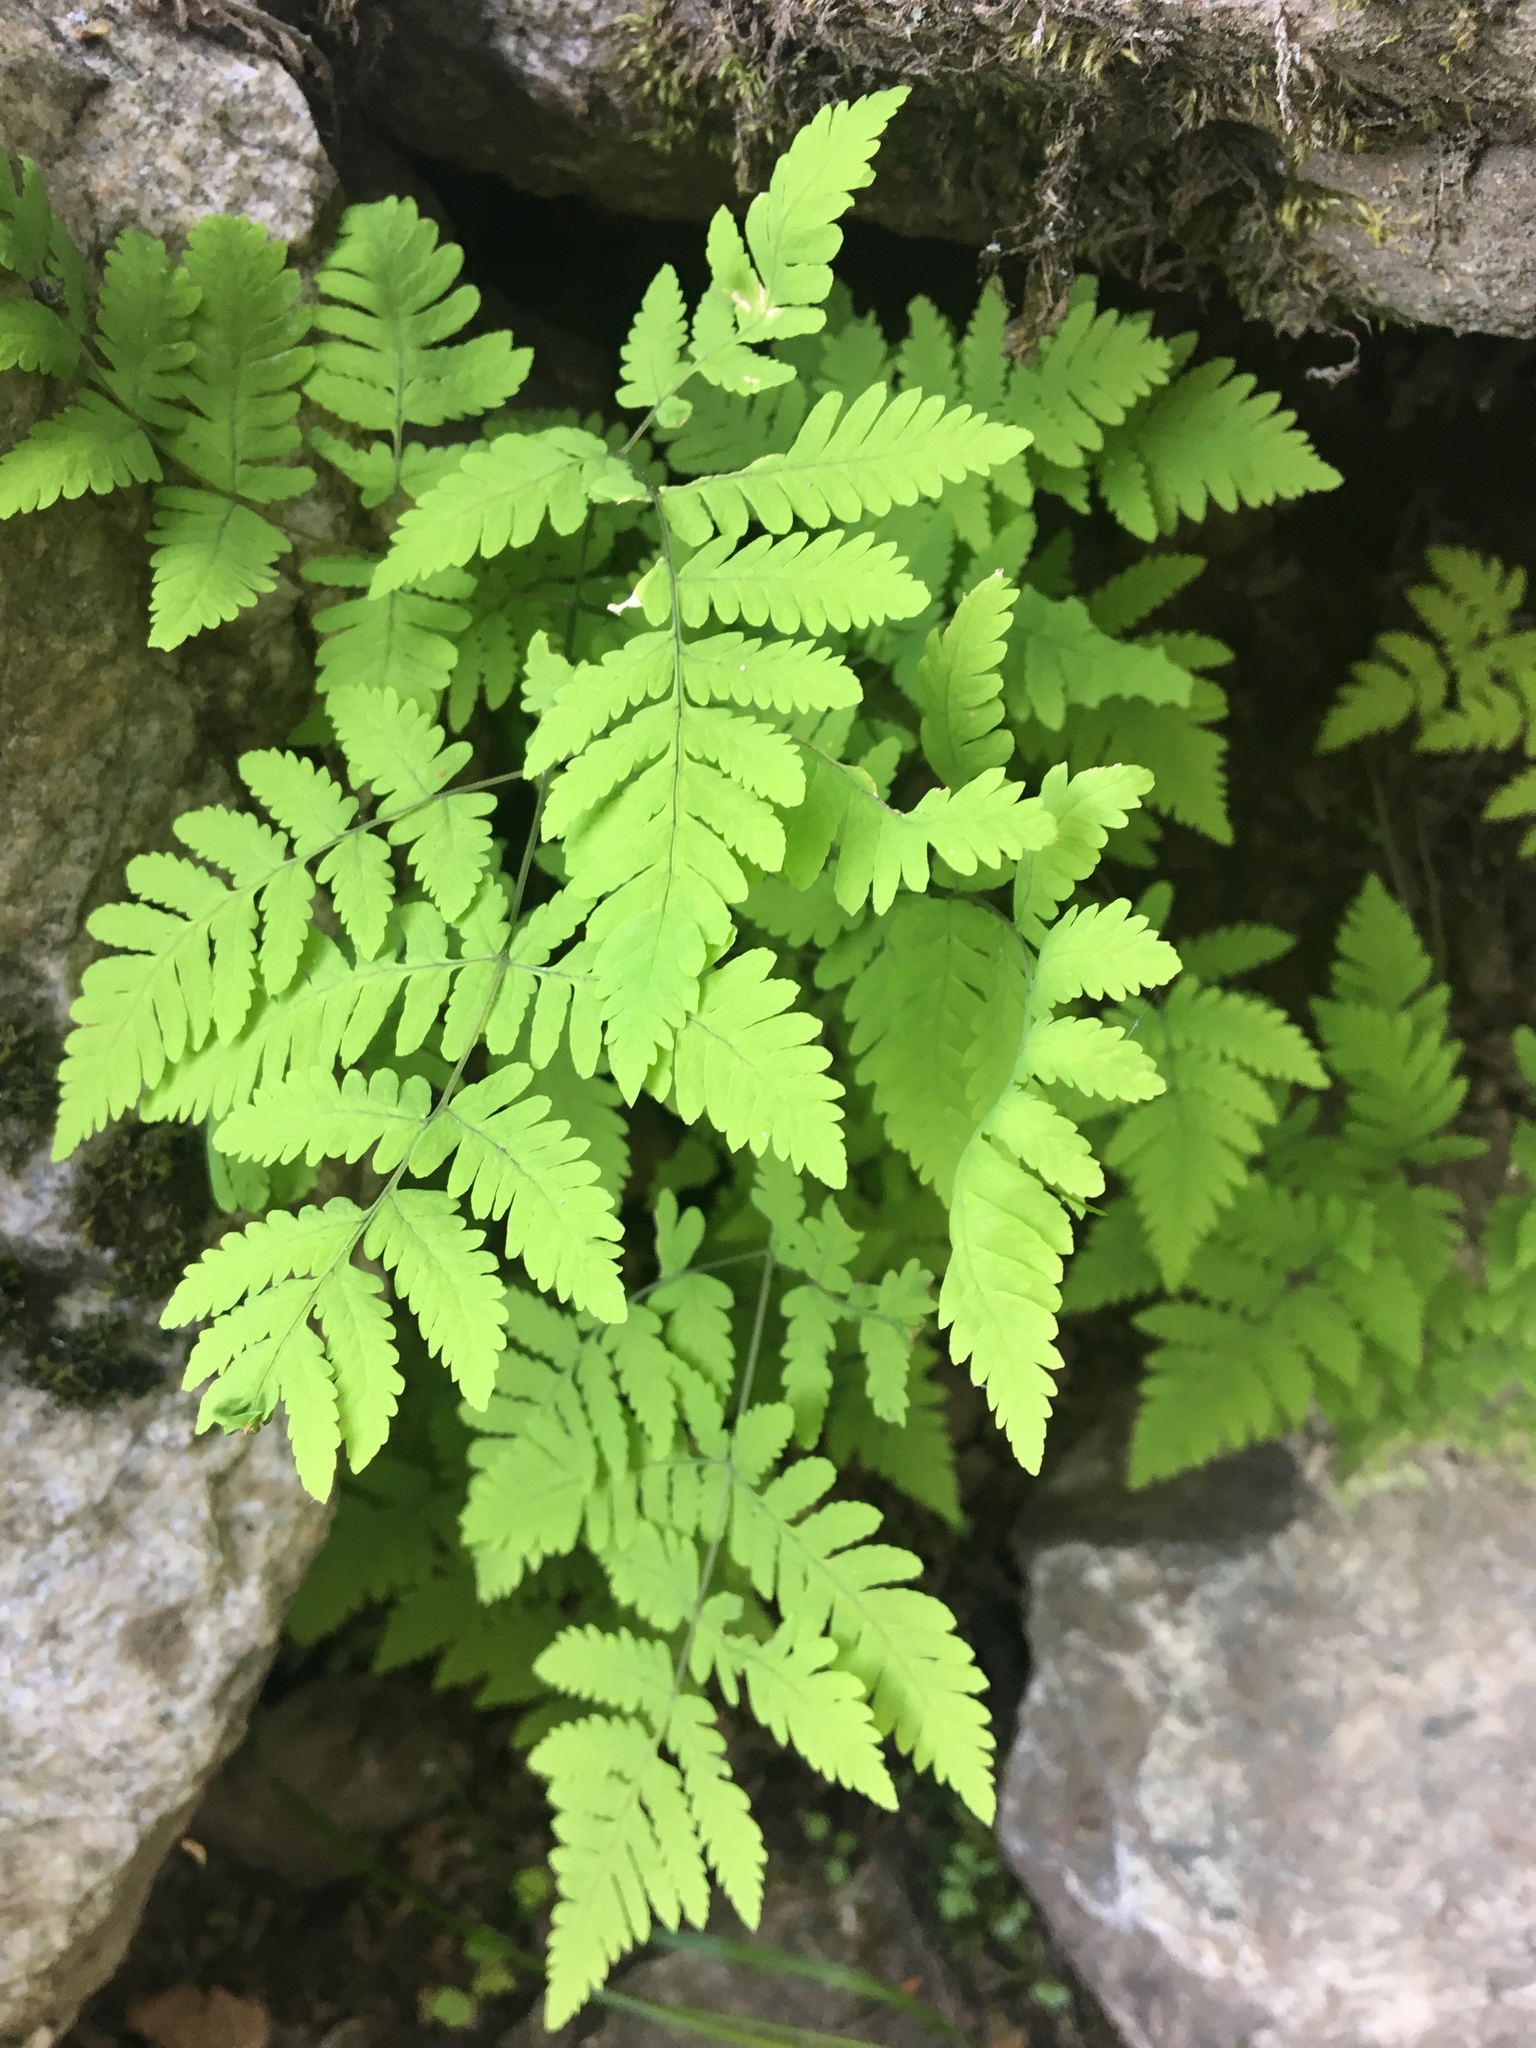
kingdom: Plantae
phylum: Tracheophyta
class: Polypodiopsida
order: Polypodiales
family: Cystopteridaceae
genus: Gymnocarpium
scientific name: Gymnocarpium dryopteris
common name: Oak fern
